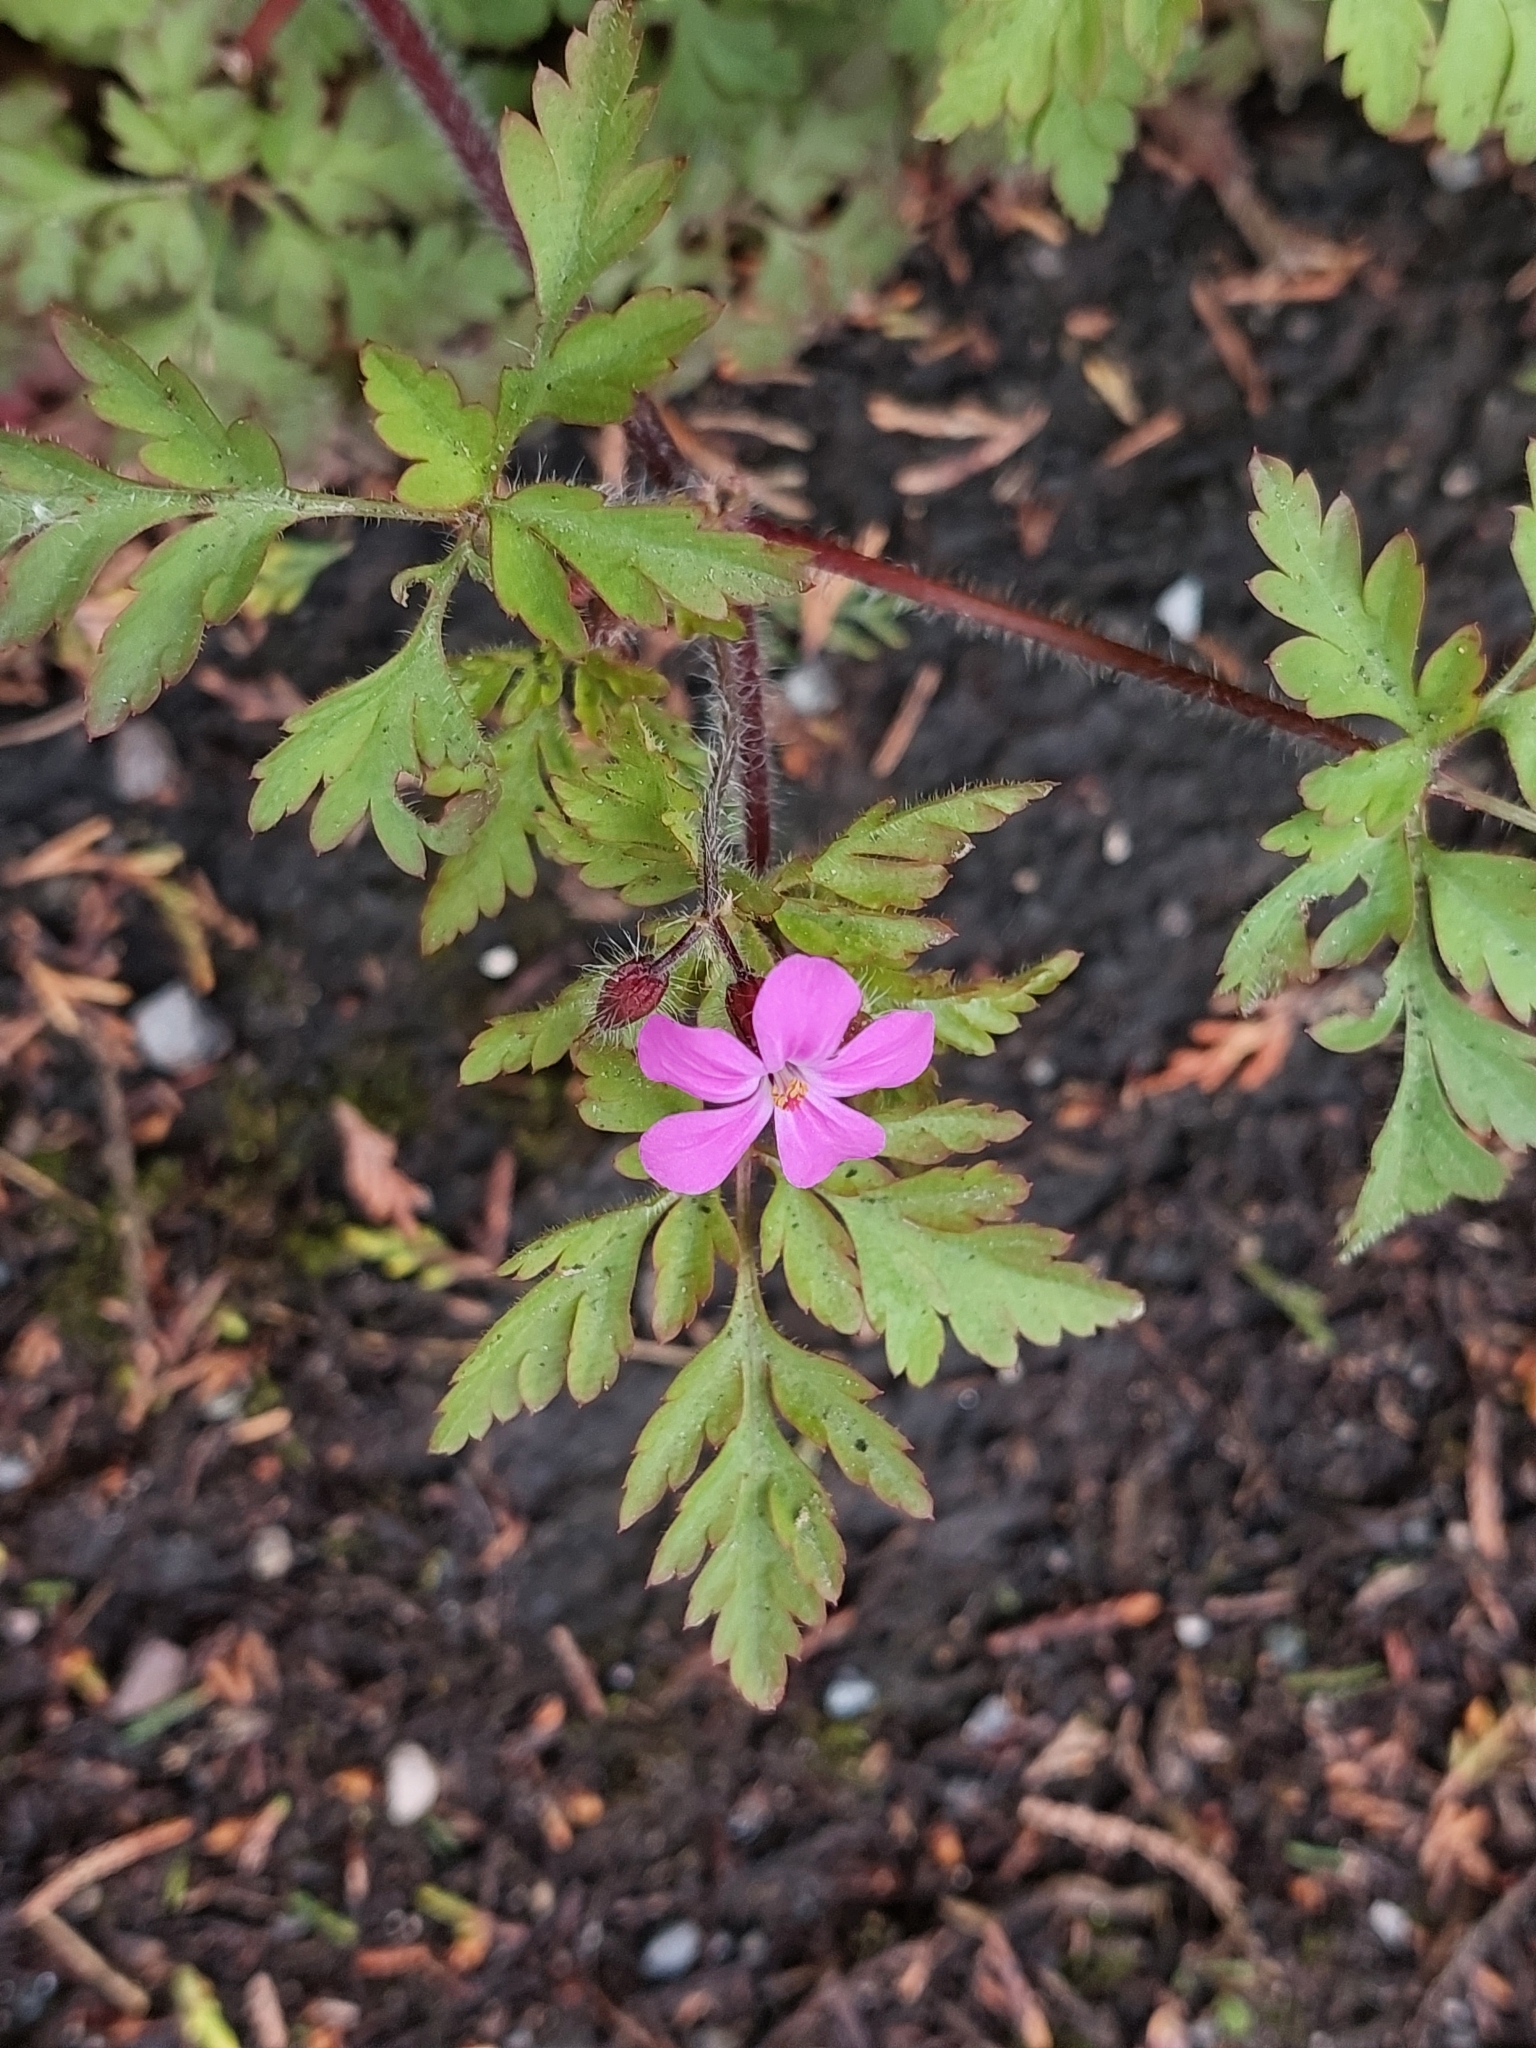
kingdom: Plantae
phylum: Tracheophyta
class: Magnoliopsida
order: Geraniales
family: Geraniaceae
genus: Geranium
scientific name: Geranium robertianum
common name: Herb-robert
